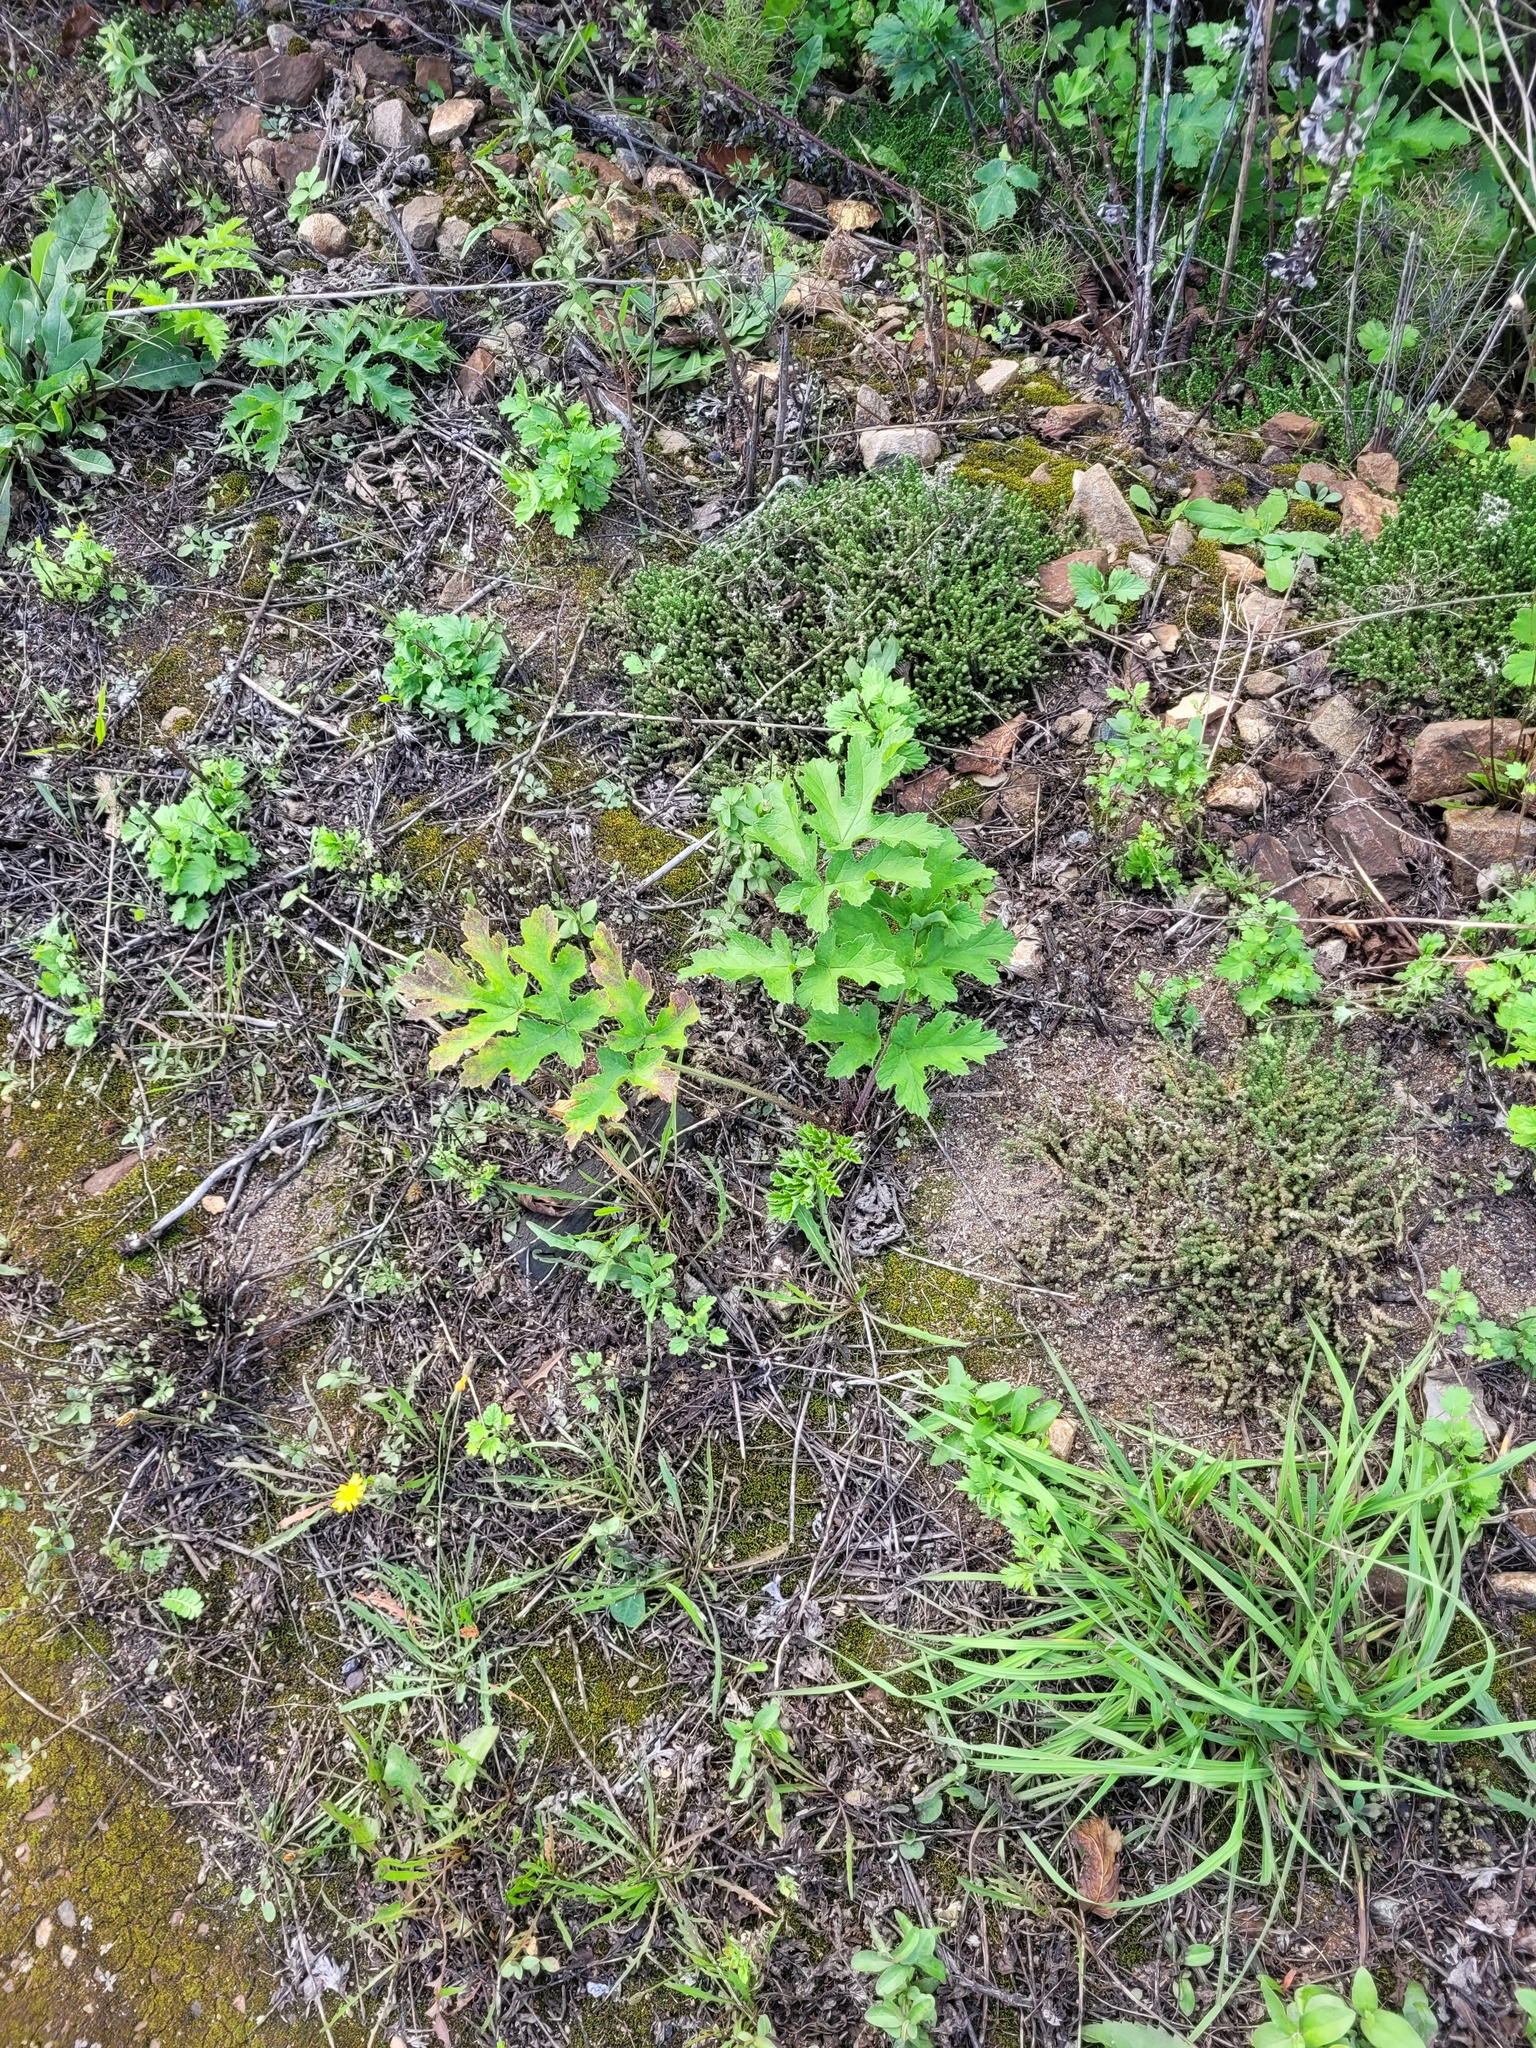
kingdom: Plantae
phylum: Tracheophyta
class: Magnoliopsida
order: Apiales
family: Apiaceae
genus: Heracleum
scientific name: Heracleum sphondylium
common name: Hogweed
